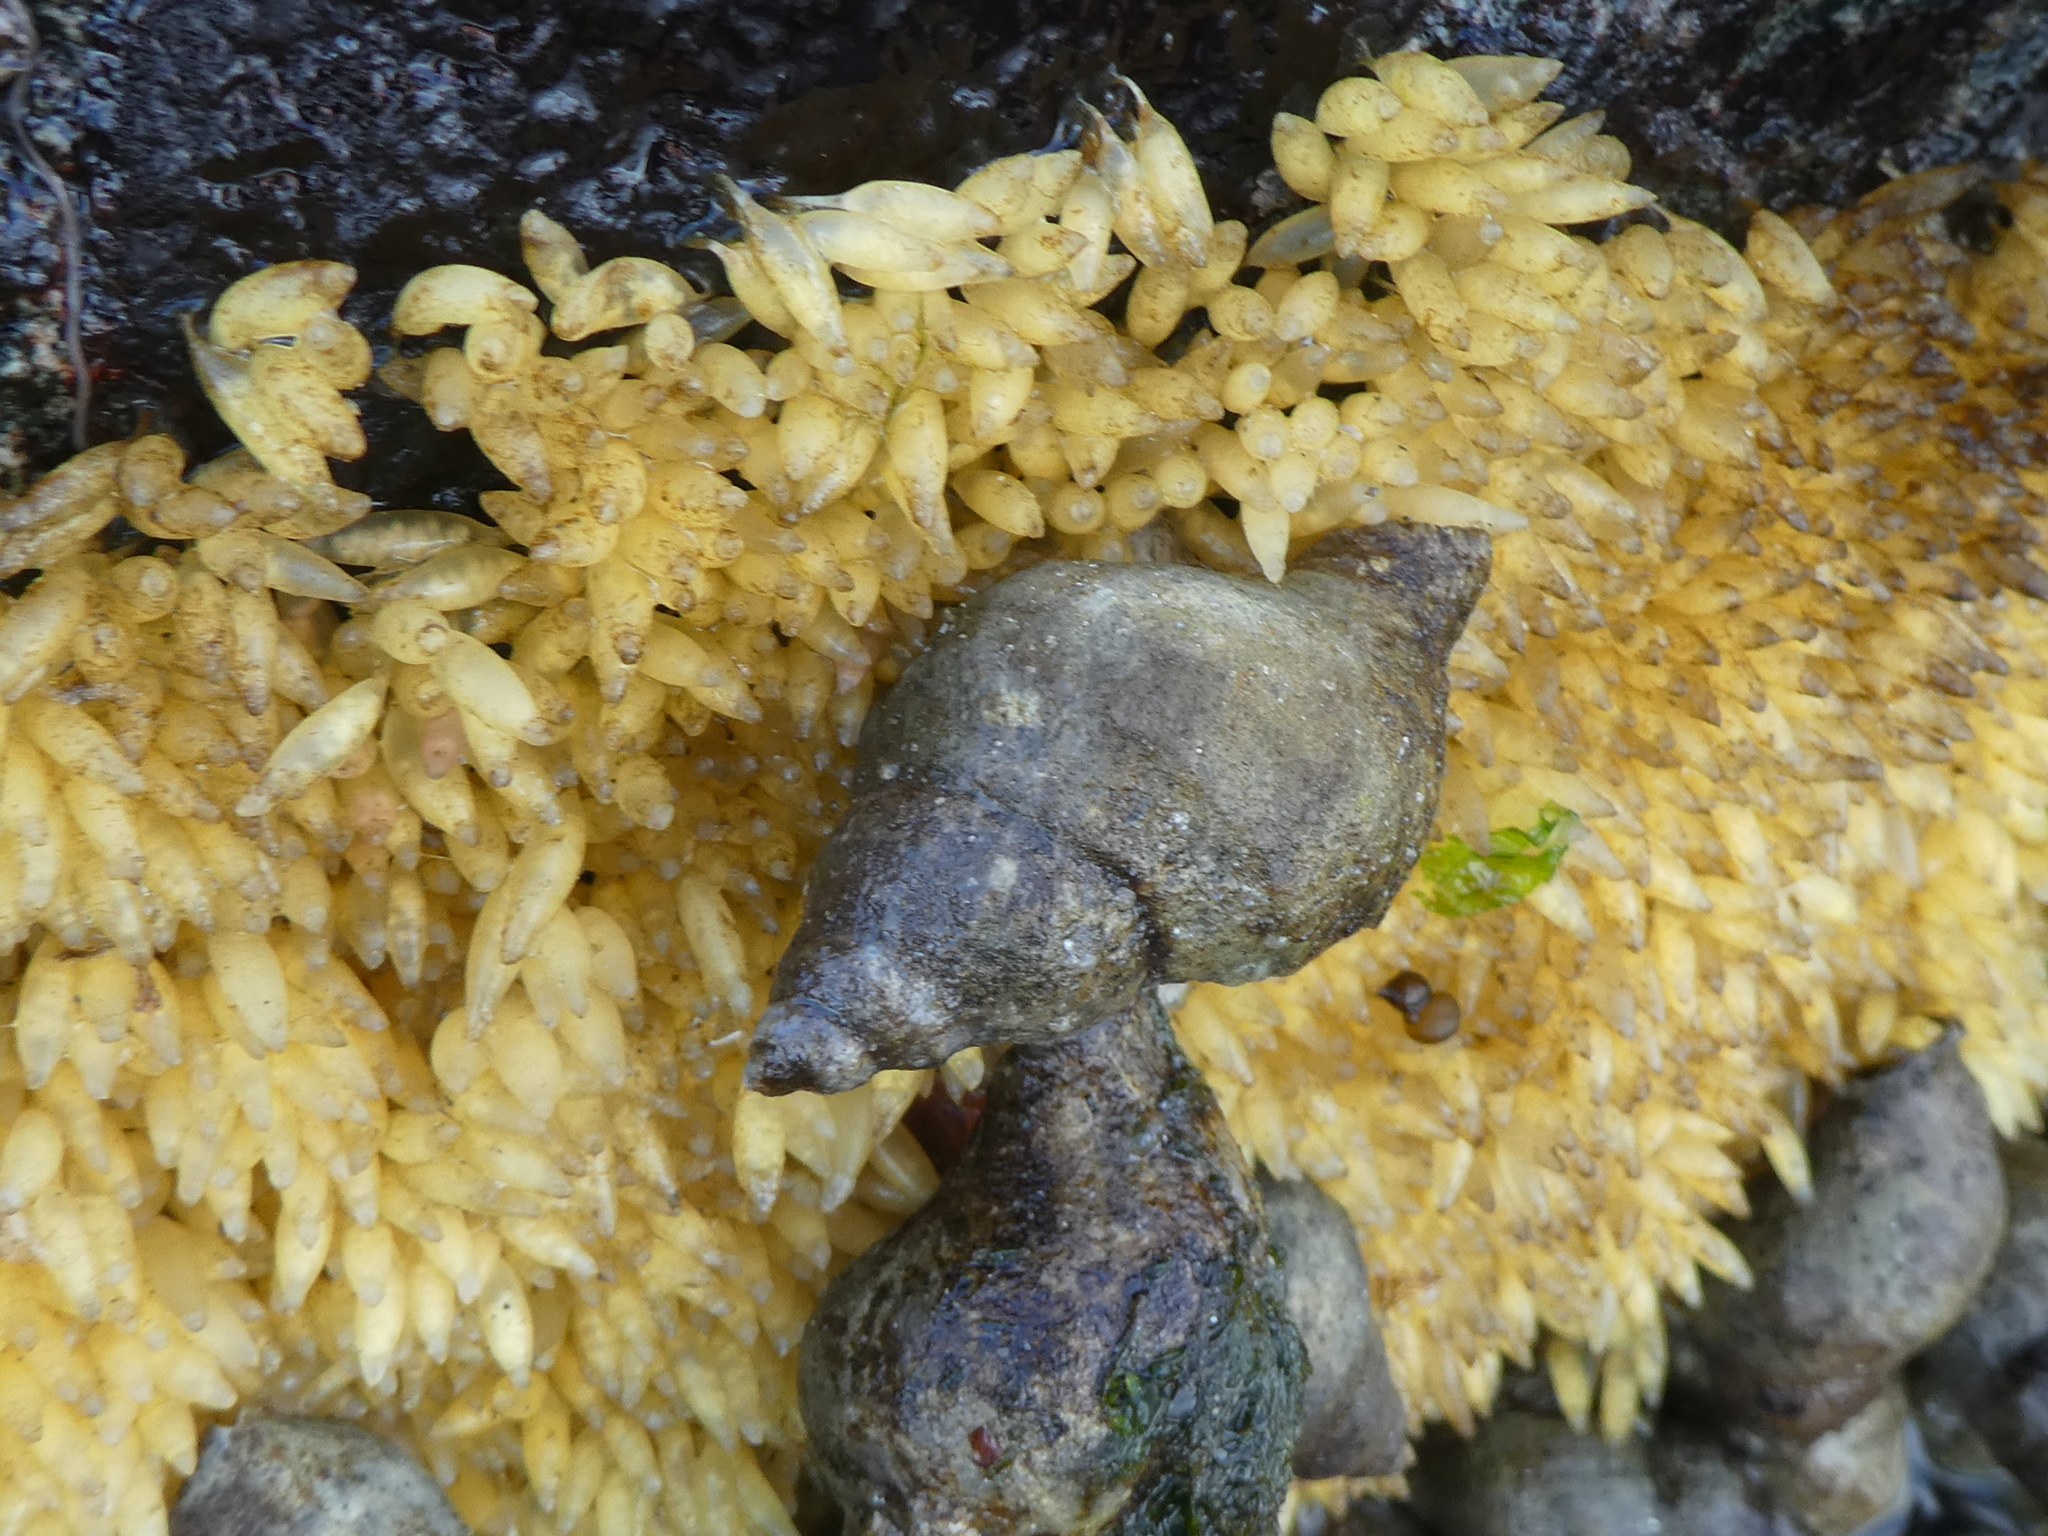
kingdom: Animalia
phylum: Mollusca
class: Gastropoda
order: Neogastropoda
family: Muricidae
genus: Nucella
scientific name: Nucella lamellosa
